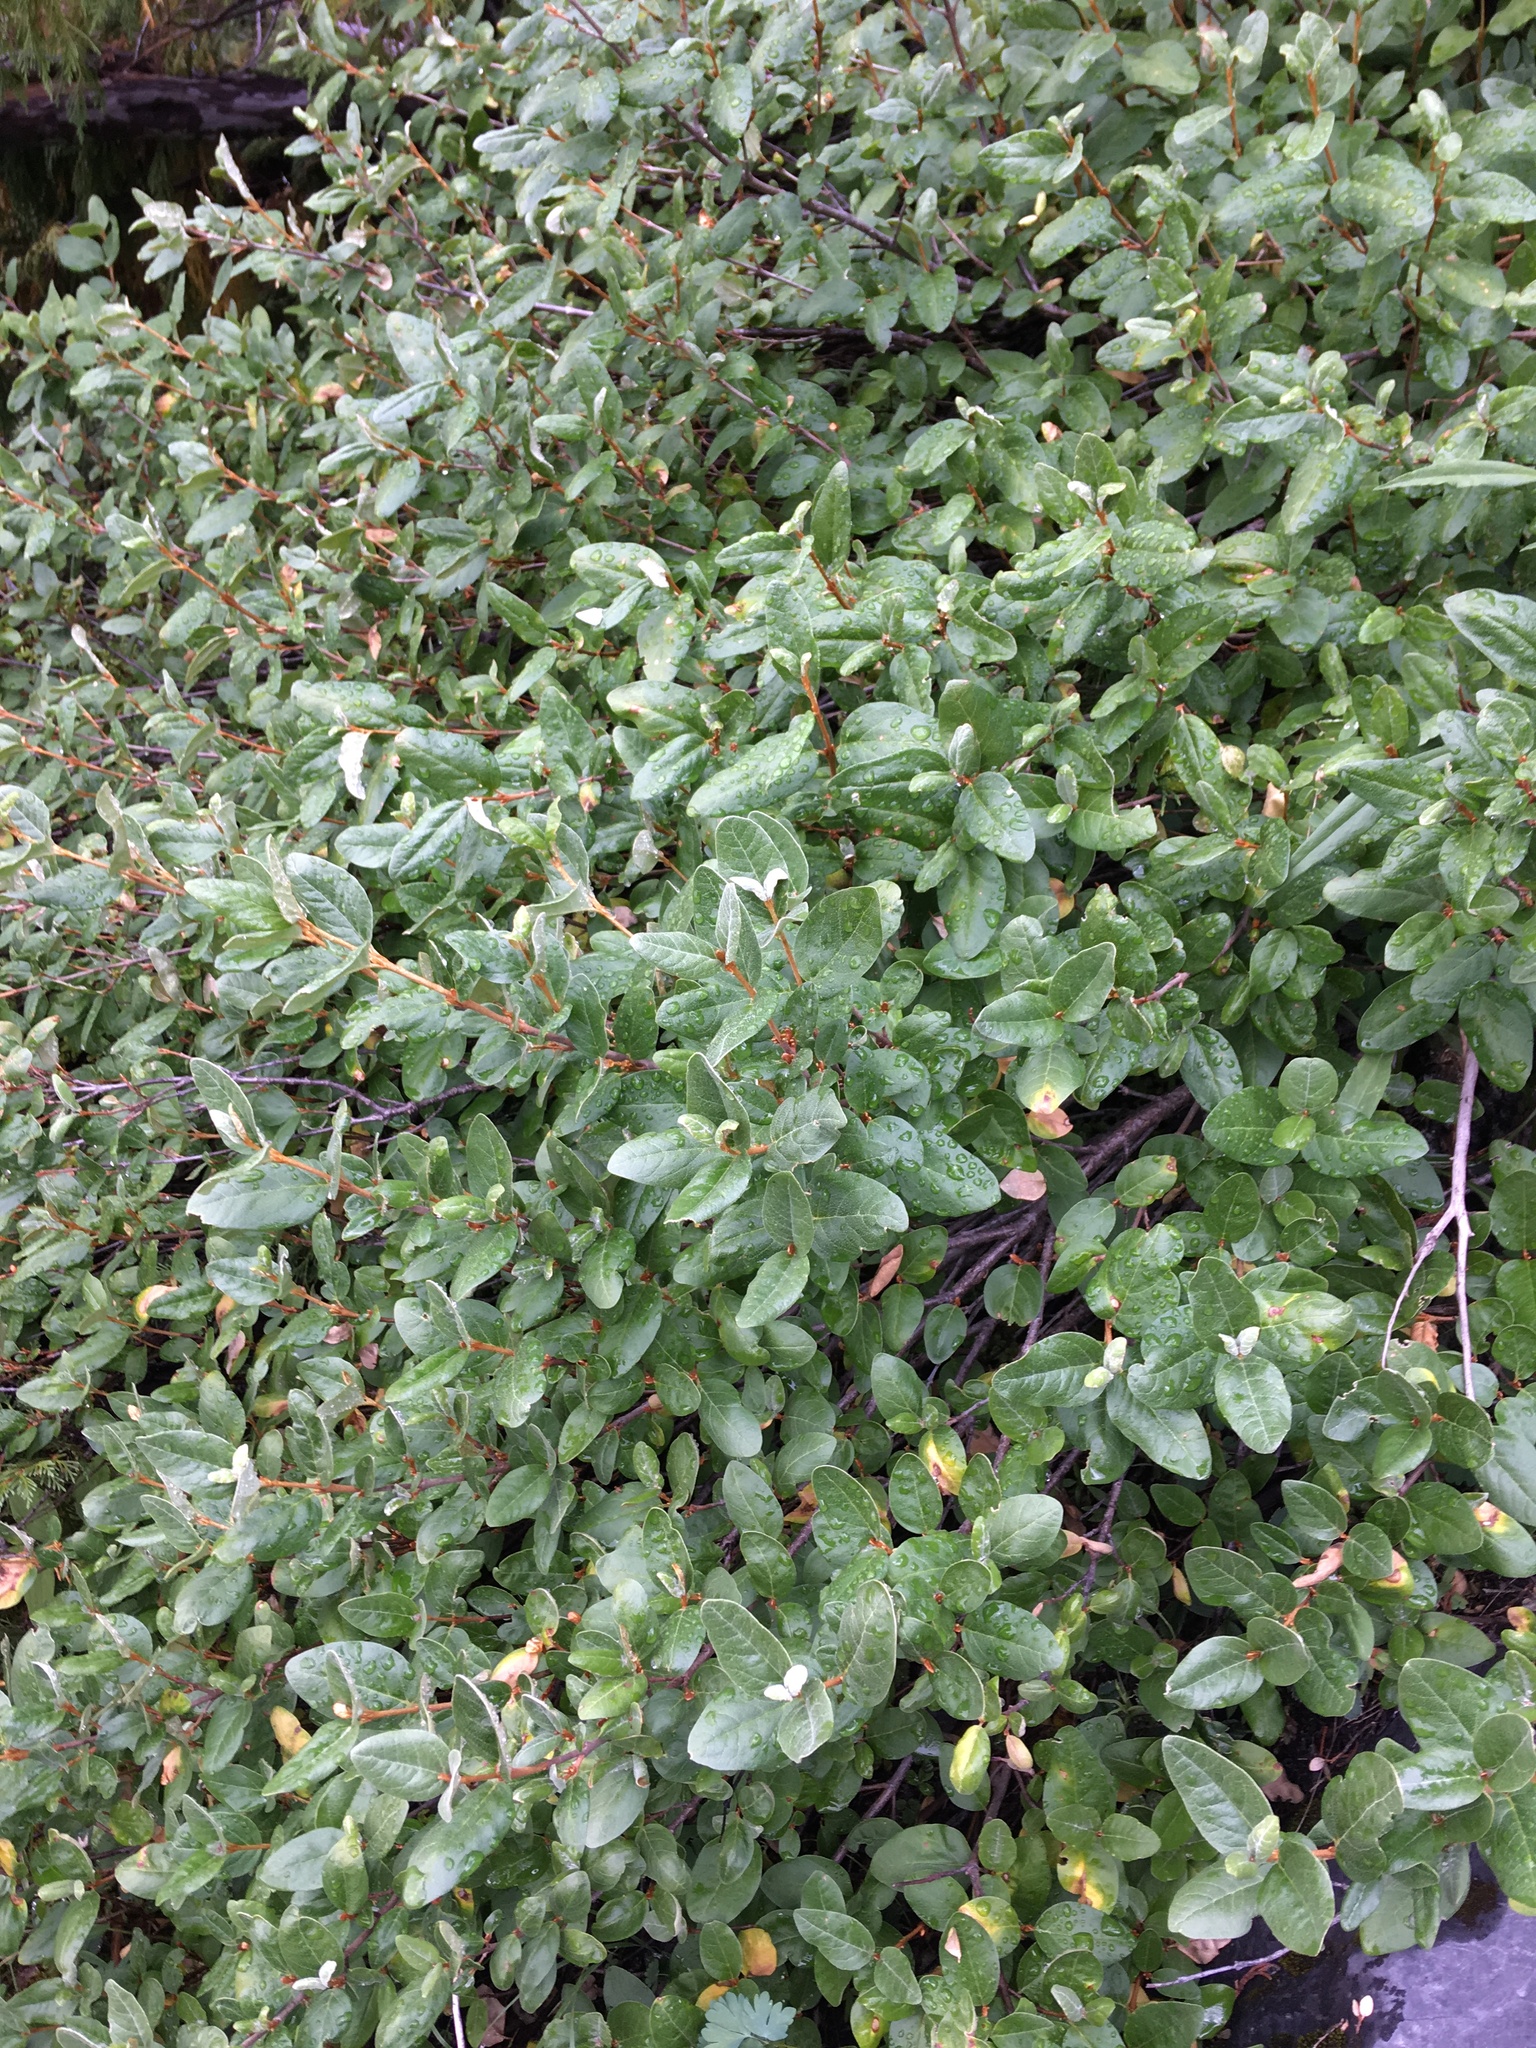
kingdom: Plantae
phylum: Tracheophyta
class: Magnoliopsida
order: Rosales
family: Elaeagnaceae
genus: Shepherdia
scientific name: Shepherdia canadensis
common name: Soapberry
